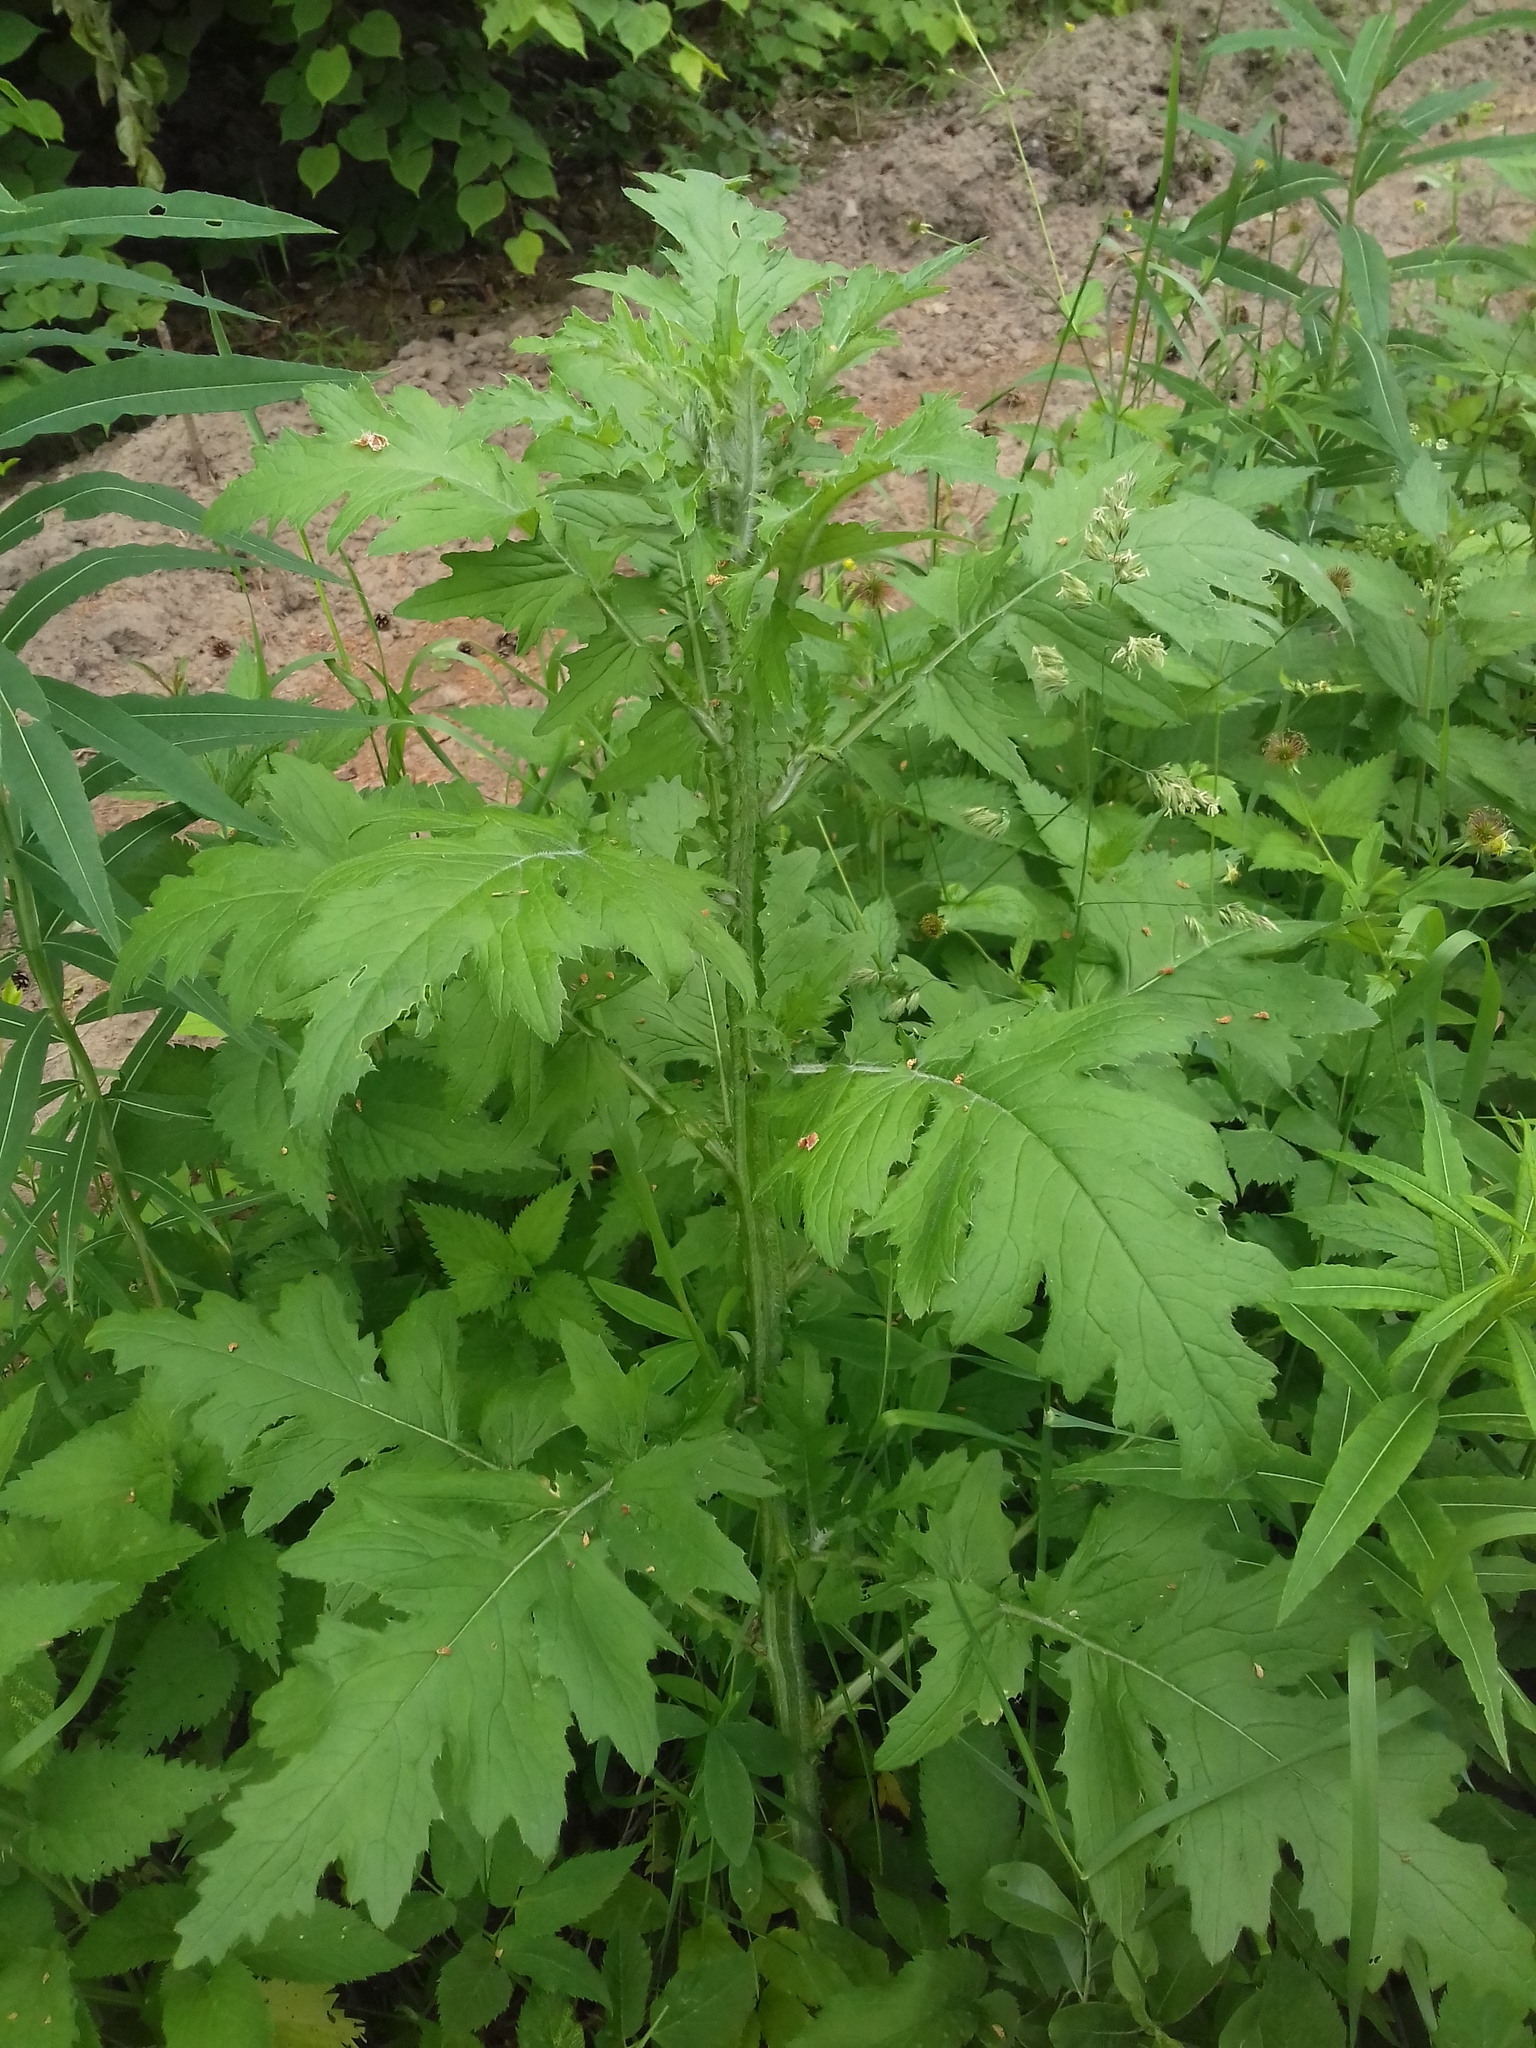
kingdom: Plantae
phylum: Tracheophyta
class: Magnoliopsida
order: Asterales
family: Asteraceae
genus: Carduus
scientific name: Carduus crispus
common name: Welted thistle
